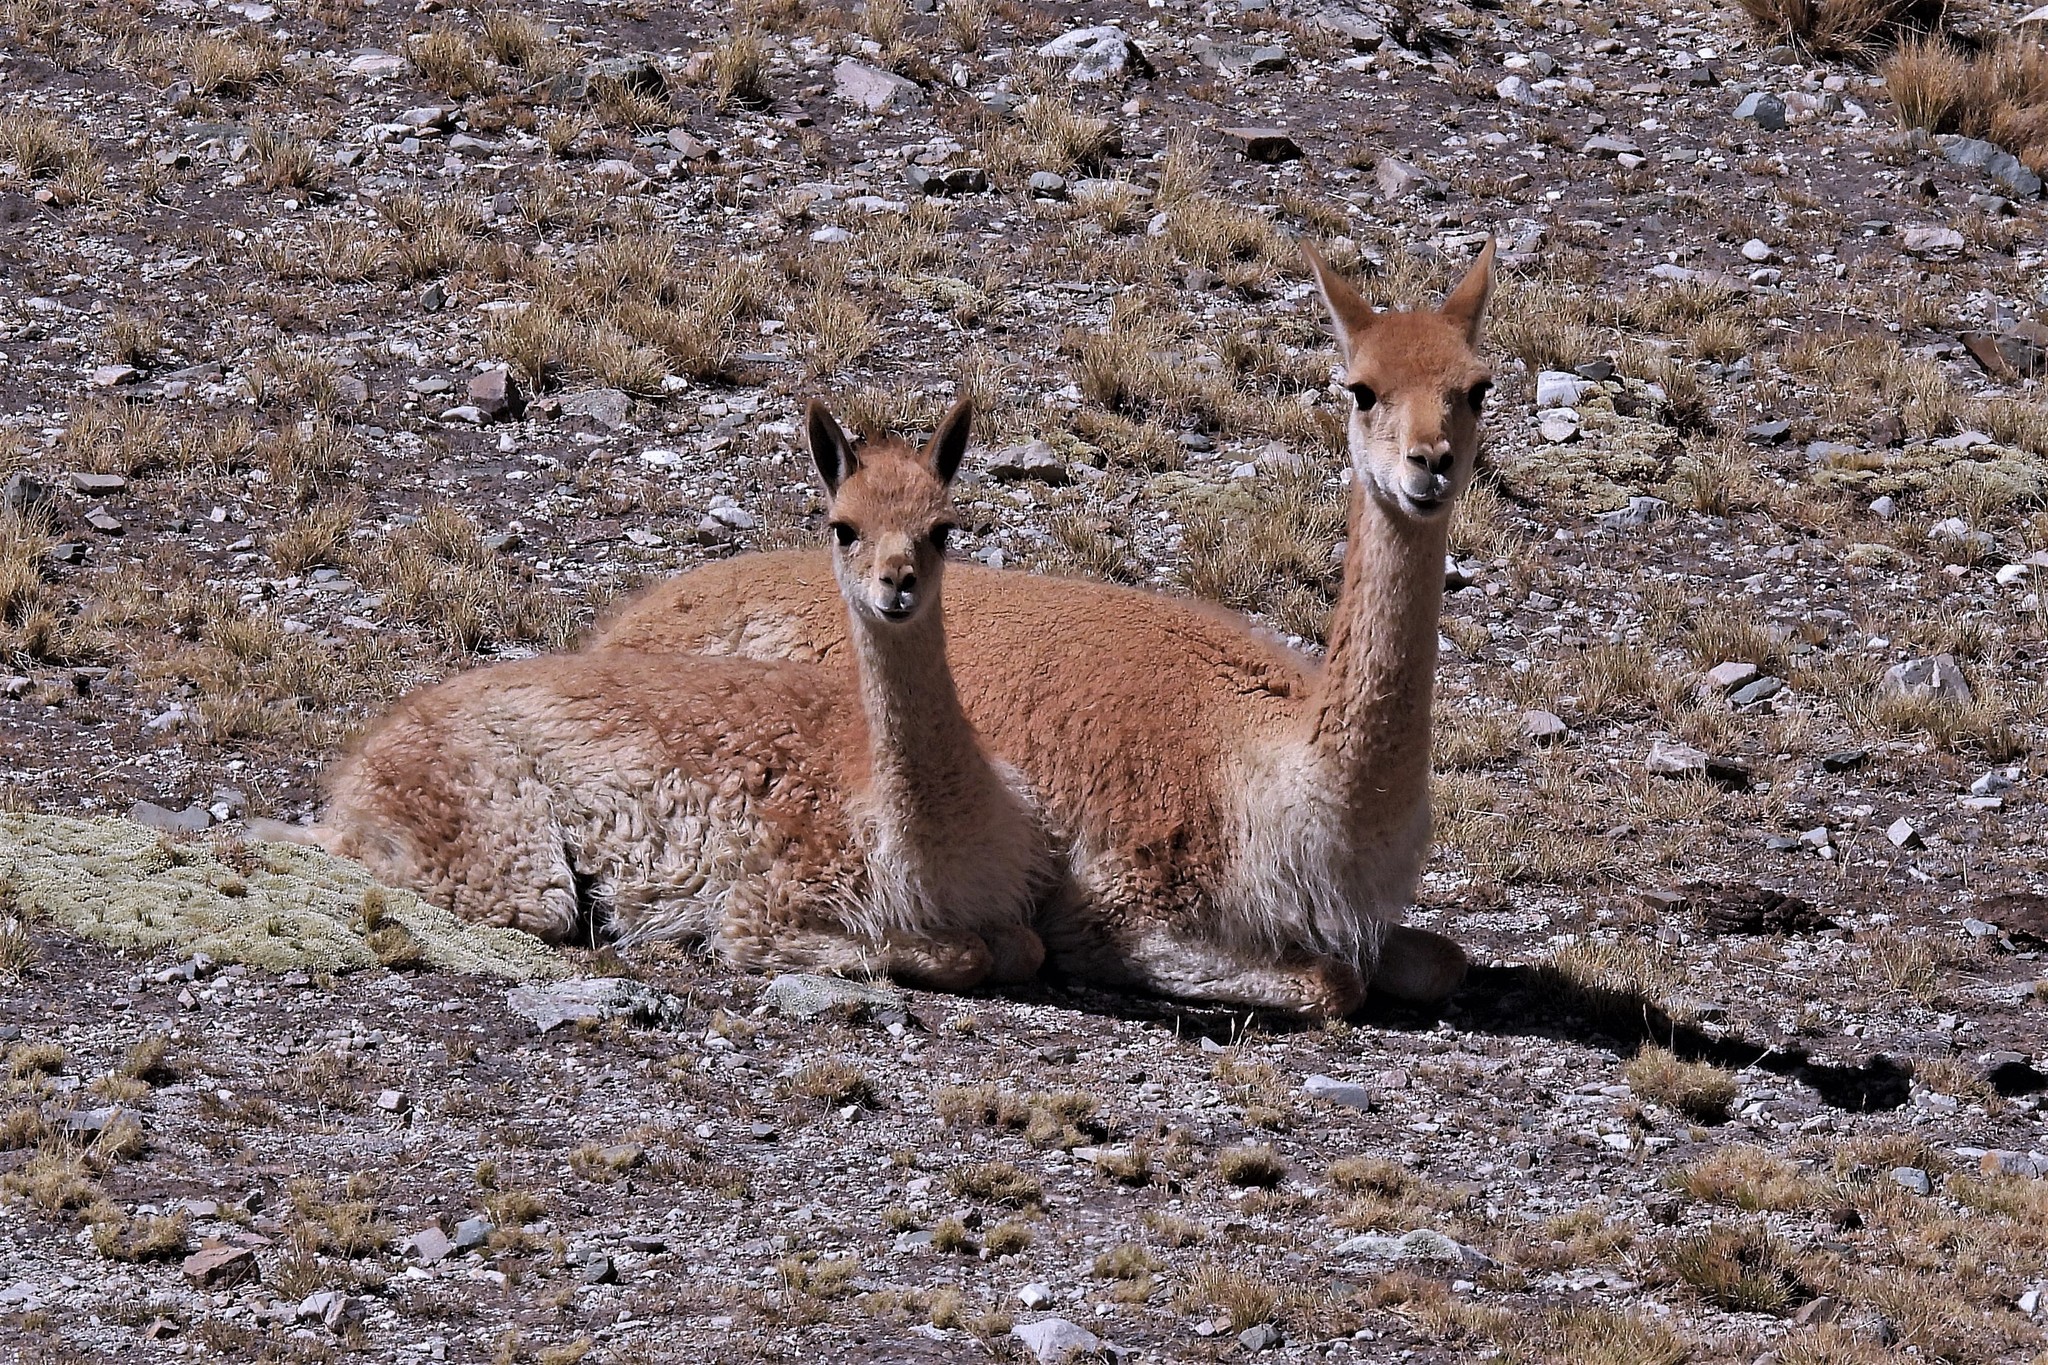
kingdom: Animalia
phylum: Chordata
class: Mammalia
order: Artiodactyla
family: Camelidae
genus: Vicugna
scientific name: Vicugna vicugna
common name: Vicugna
